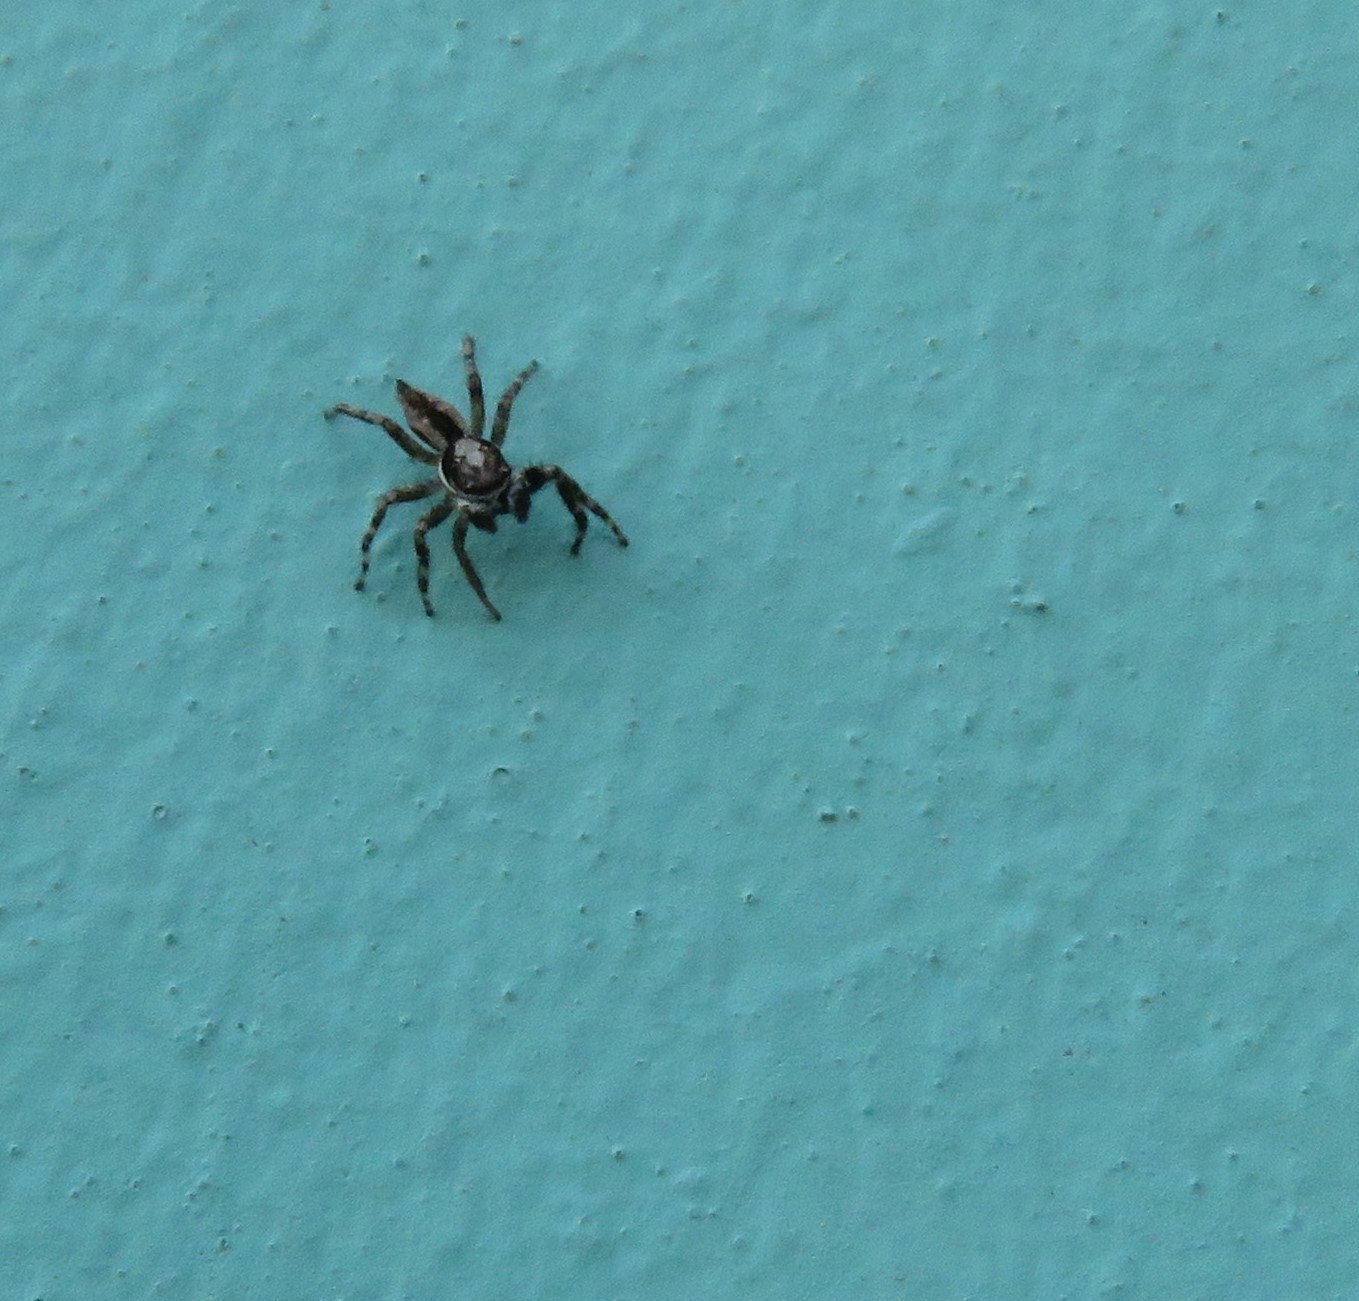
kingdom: Animalia
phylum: Arthropoda
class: Arachnida
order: Araneae
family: Salticidae
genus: Menemerus
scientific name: Menemerus bivittatus
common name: Gray wall jumper
